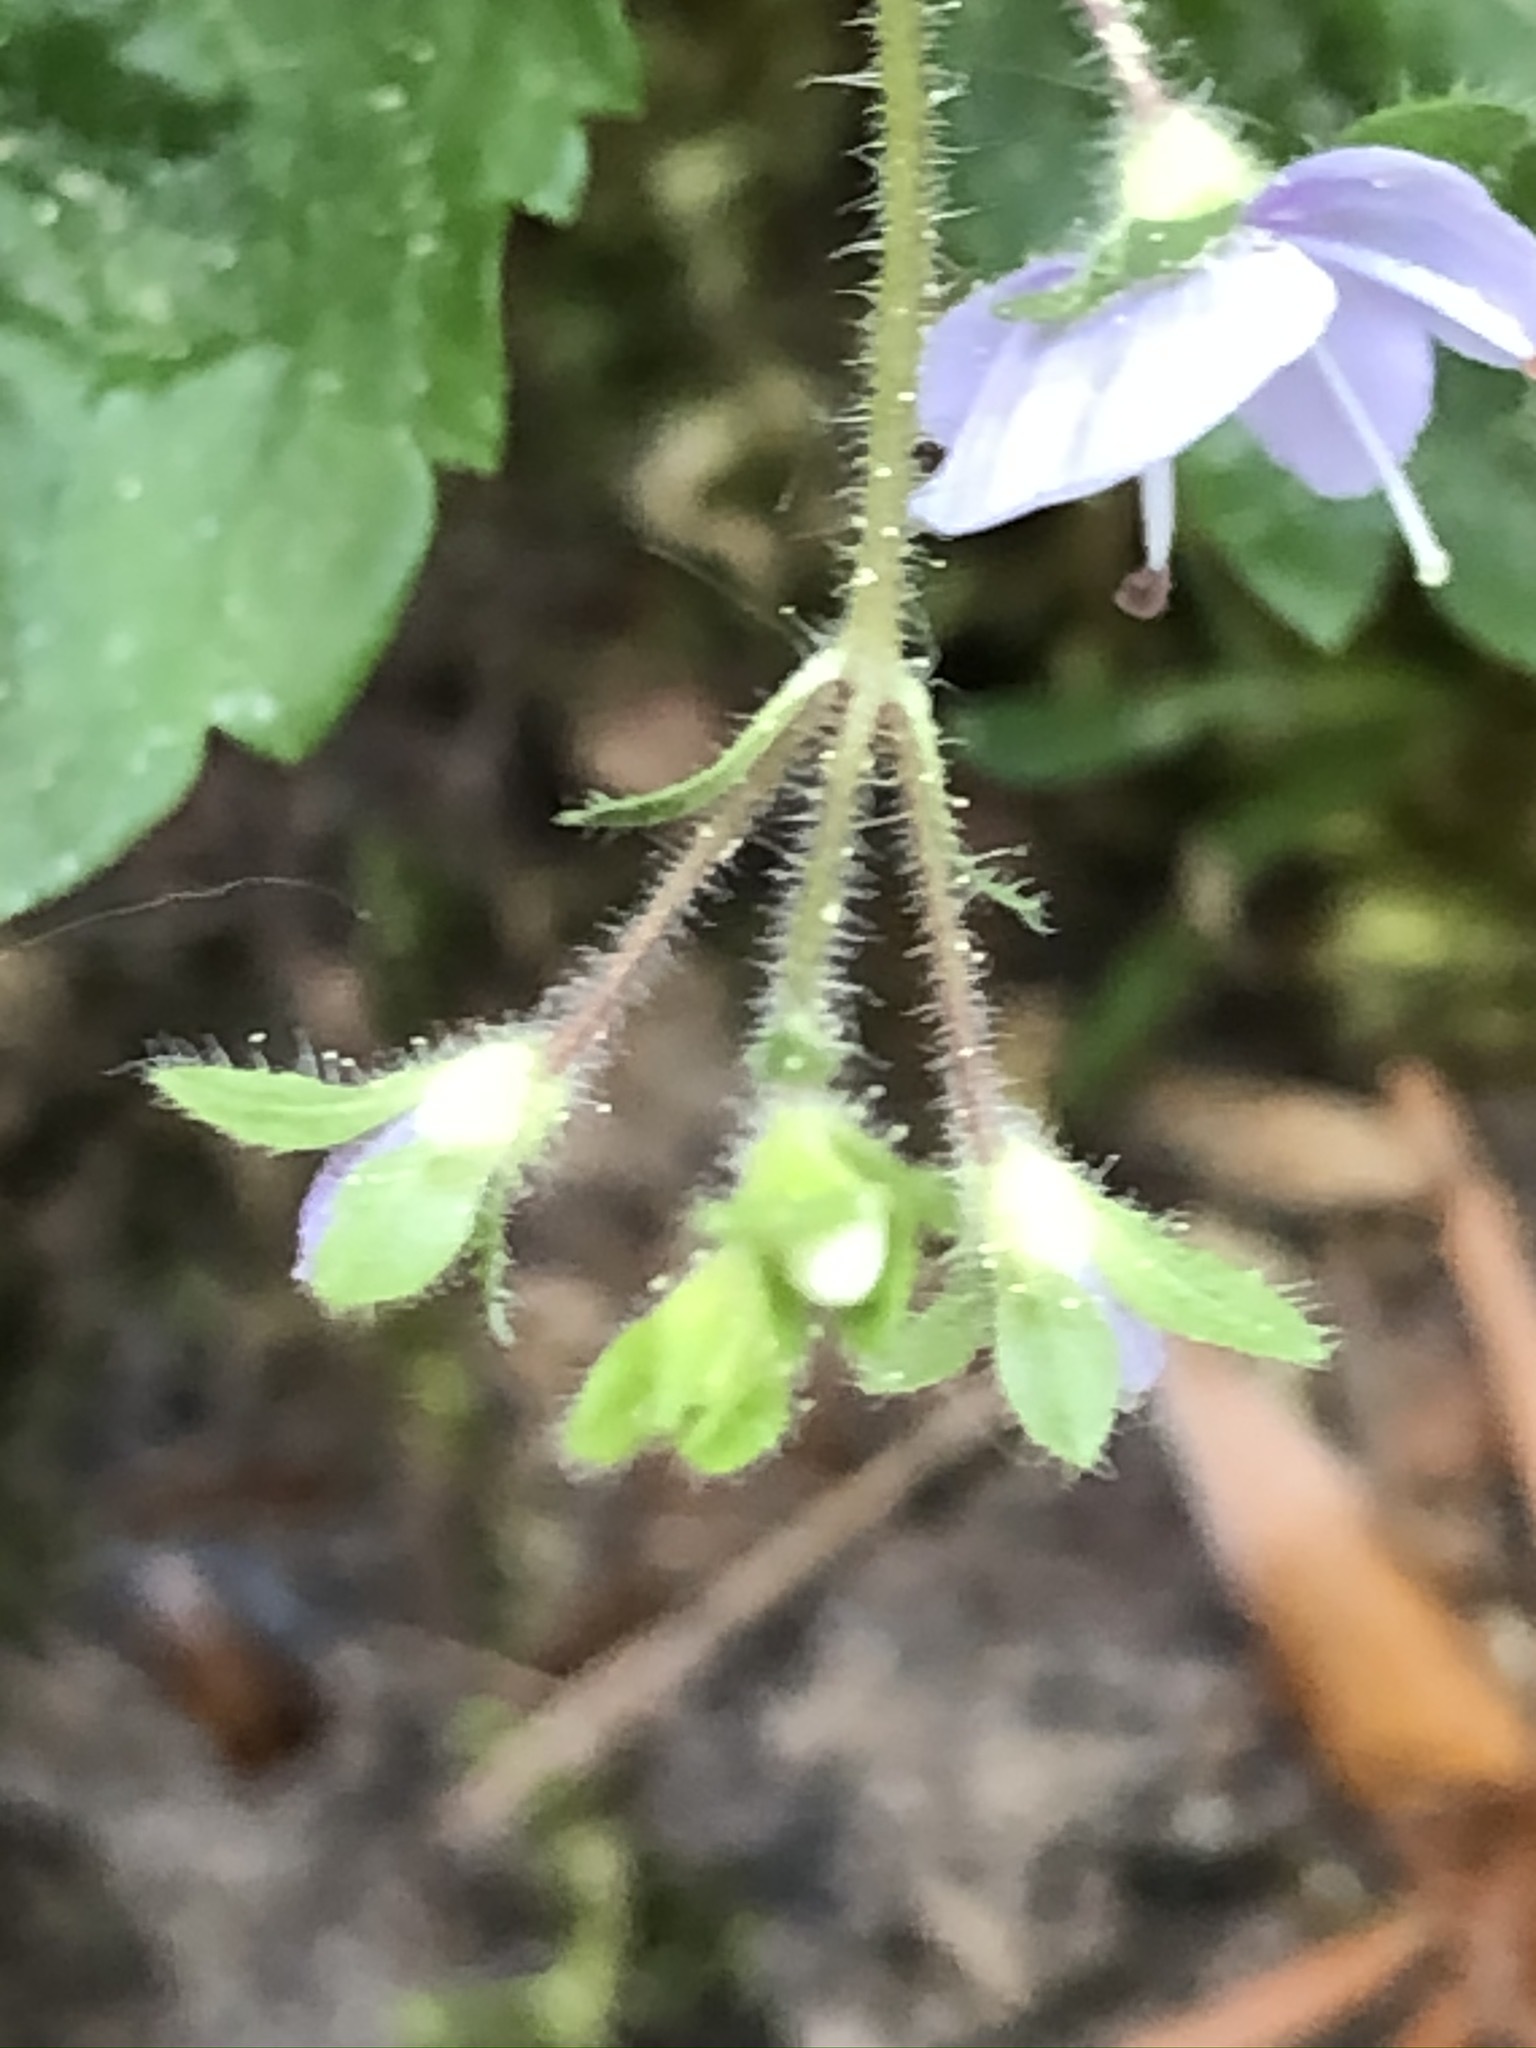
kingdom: Plantae
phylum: Tracheophyta
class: Magnoliopsida
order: Lamiales
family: Plantaginaceae
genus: Veronica
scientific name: Veronica montana
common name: Wood speedwell
